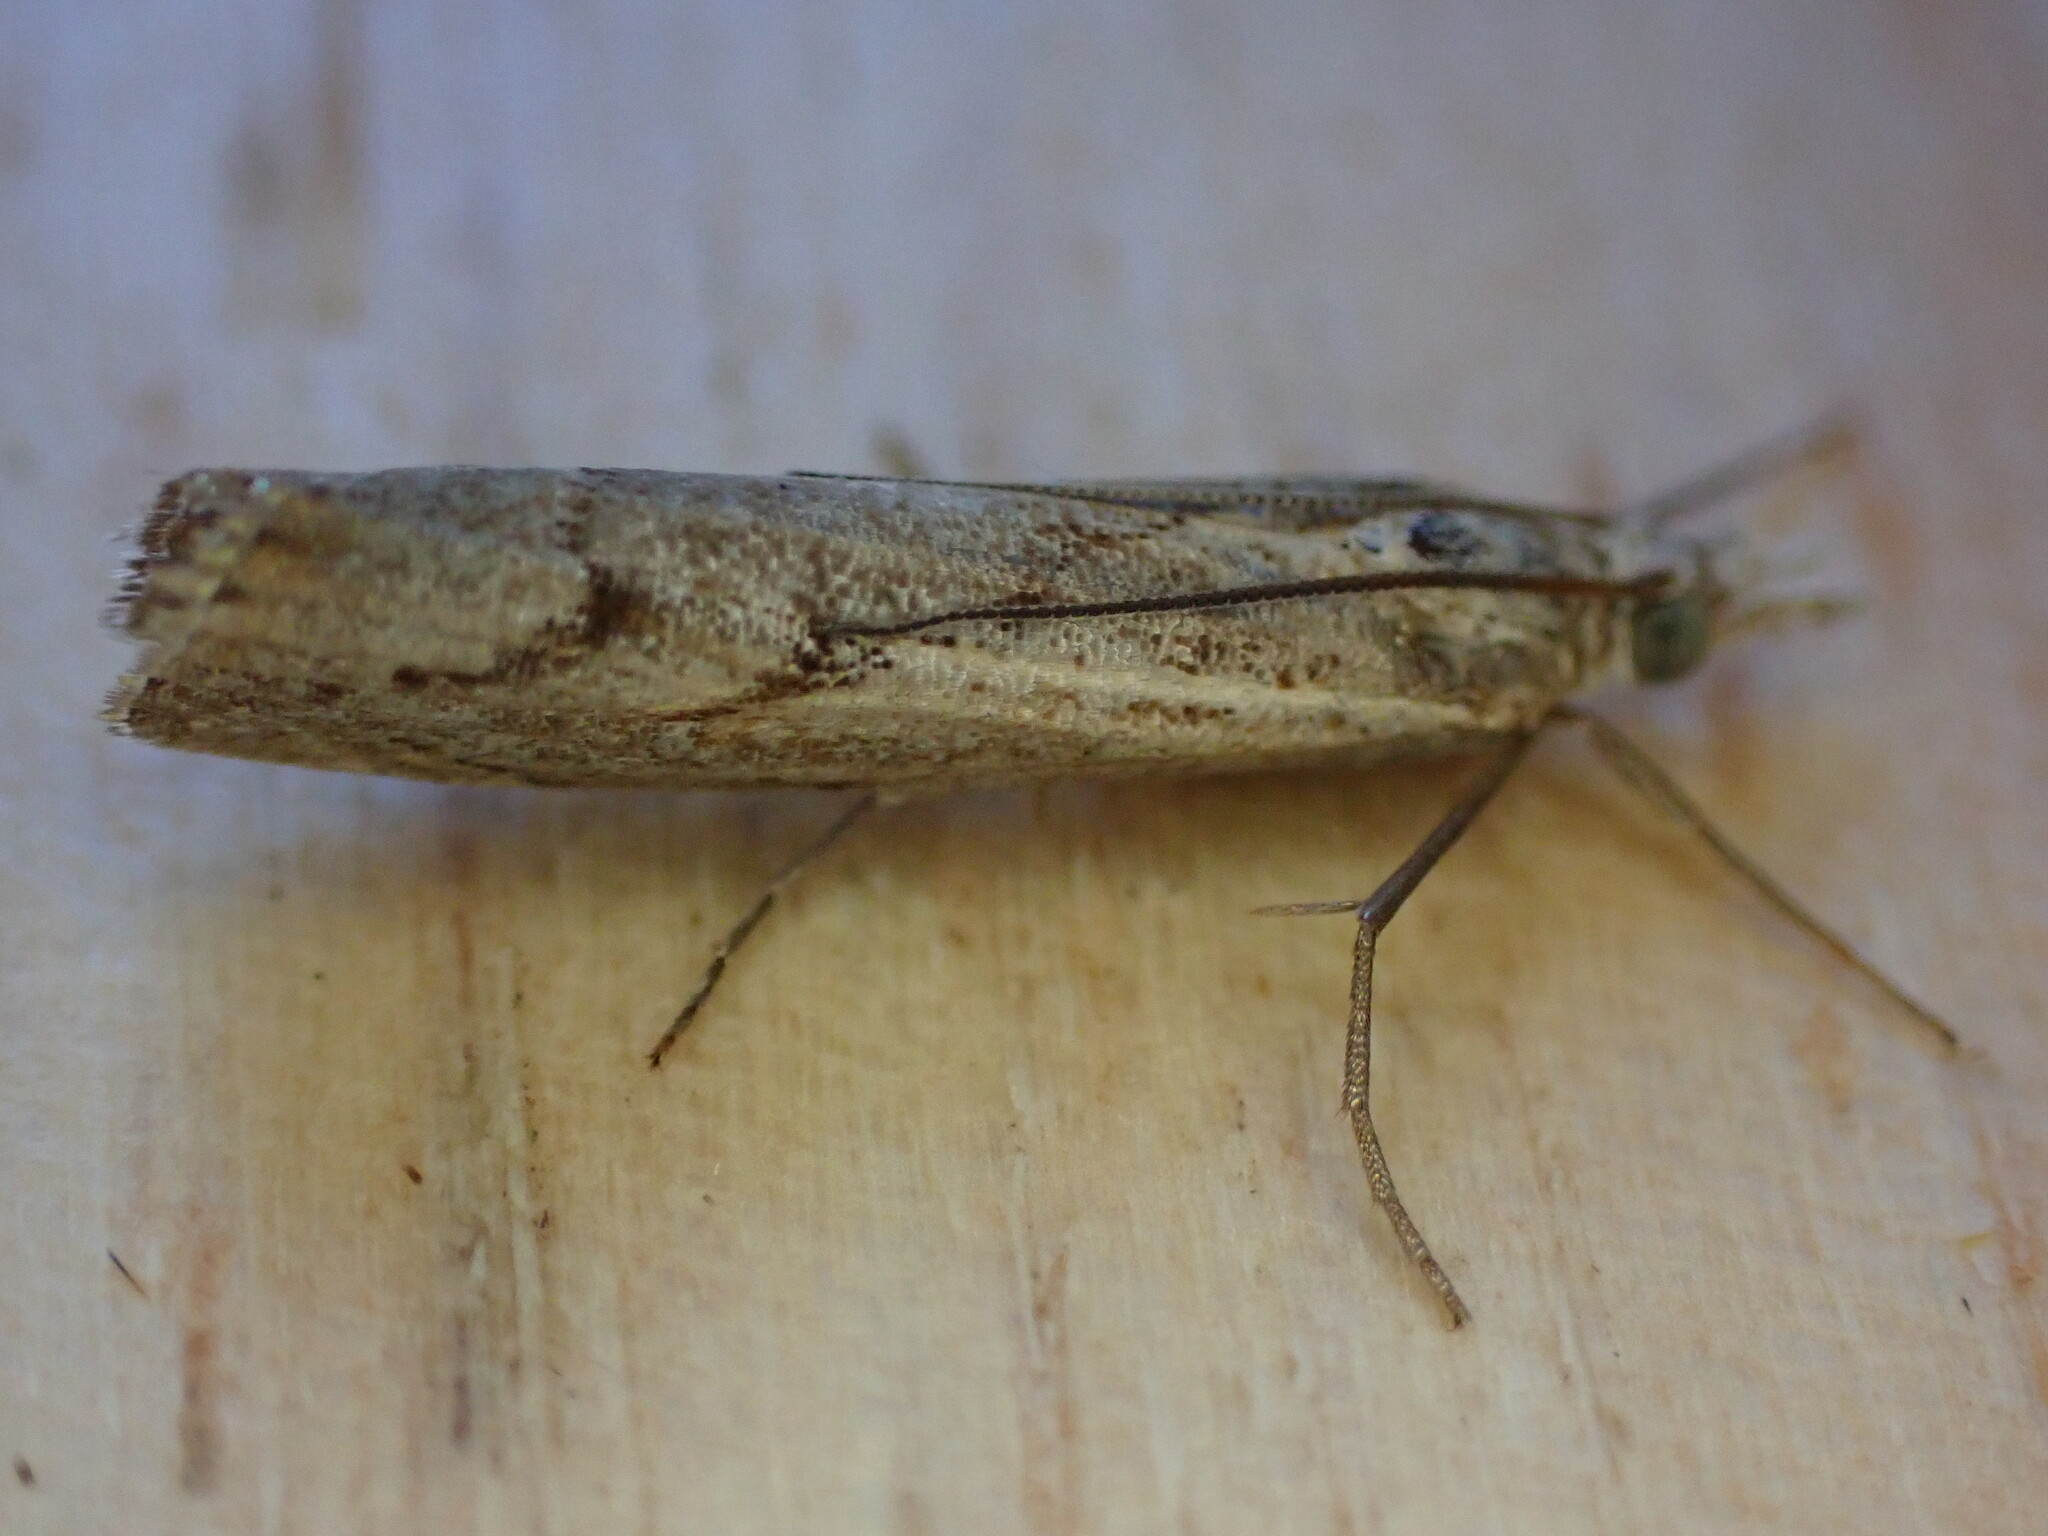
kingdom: Animalia
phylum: Arthropoda
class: Insecta
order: Lepidoptera
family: Crambidae
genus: Agriphila
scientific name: Agriphila geniculea
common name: Elbow-stripe grass-veneer
